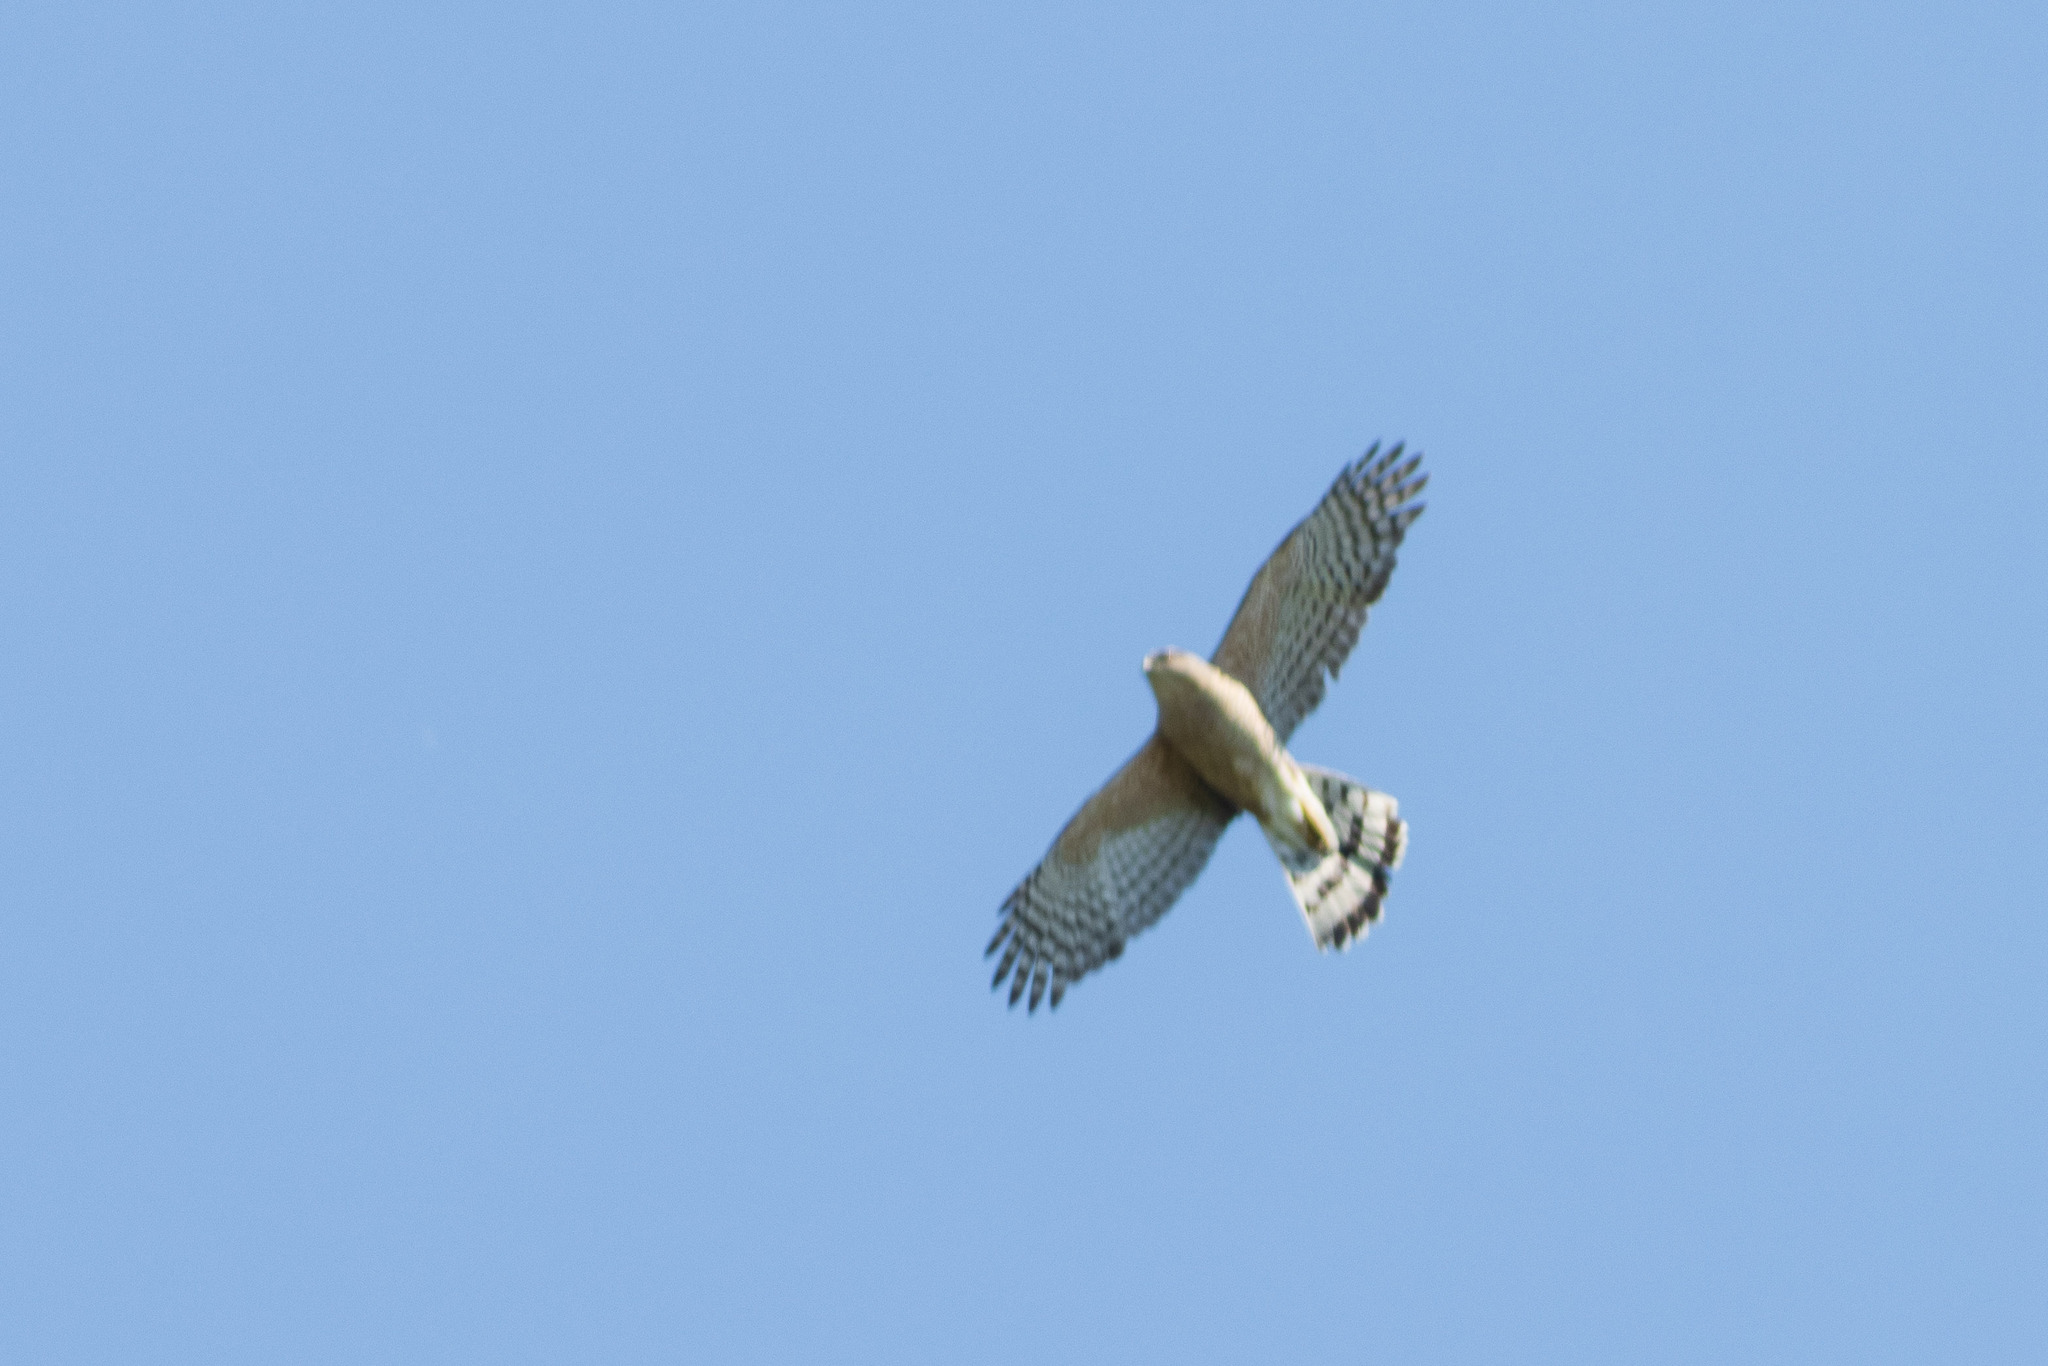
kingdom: Animalia
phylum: Chordata
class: Aves
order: Accipitriformes
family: Accipitridae
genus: Accipiter
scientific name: Accipiter cooperii
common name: Cooper's hawk
